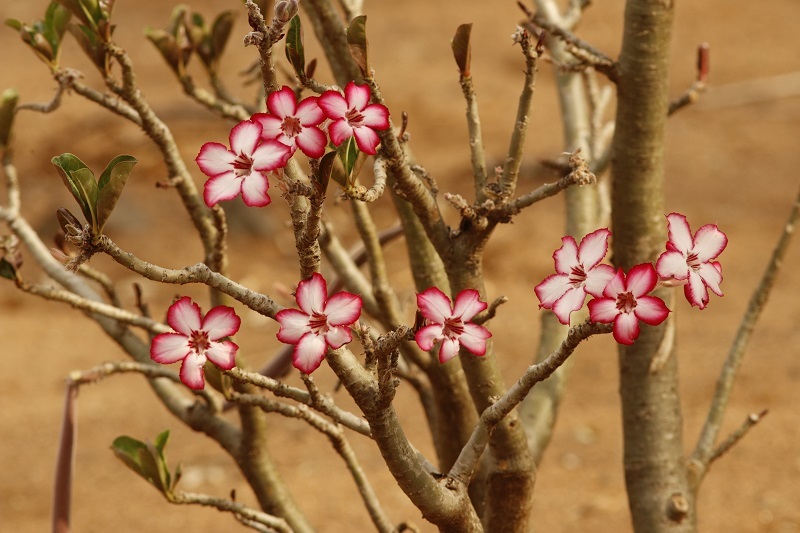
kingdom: Plantae
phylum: Tracheophyta
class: Magnoliopsida
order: Gentianales
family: Apocynaceae
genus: Adenium
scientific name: Adenium obesum
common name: Desert-rose
